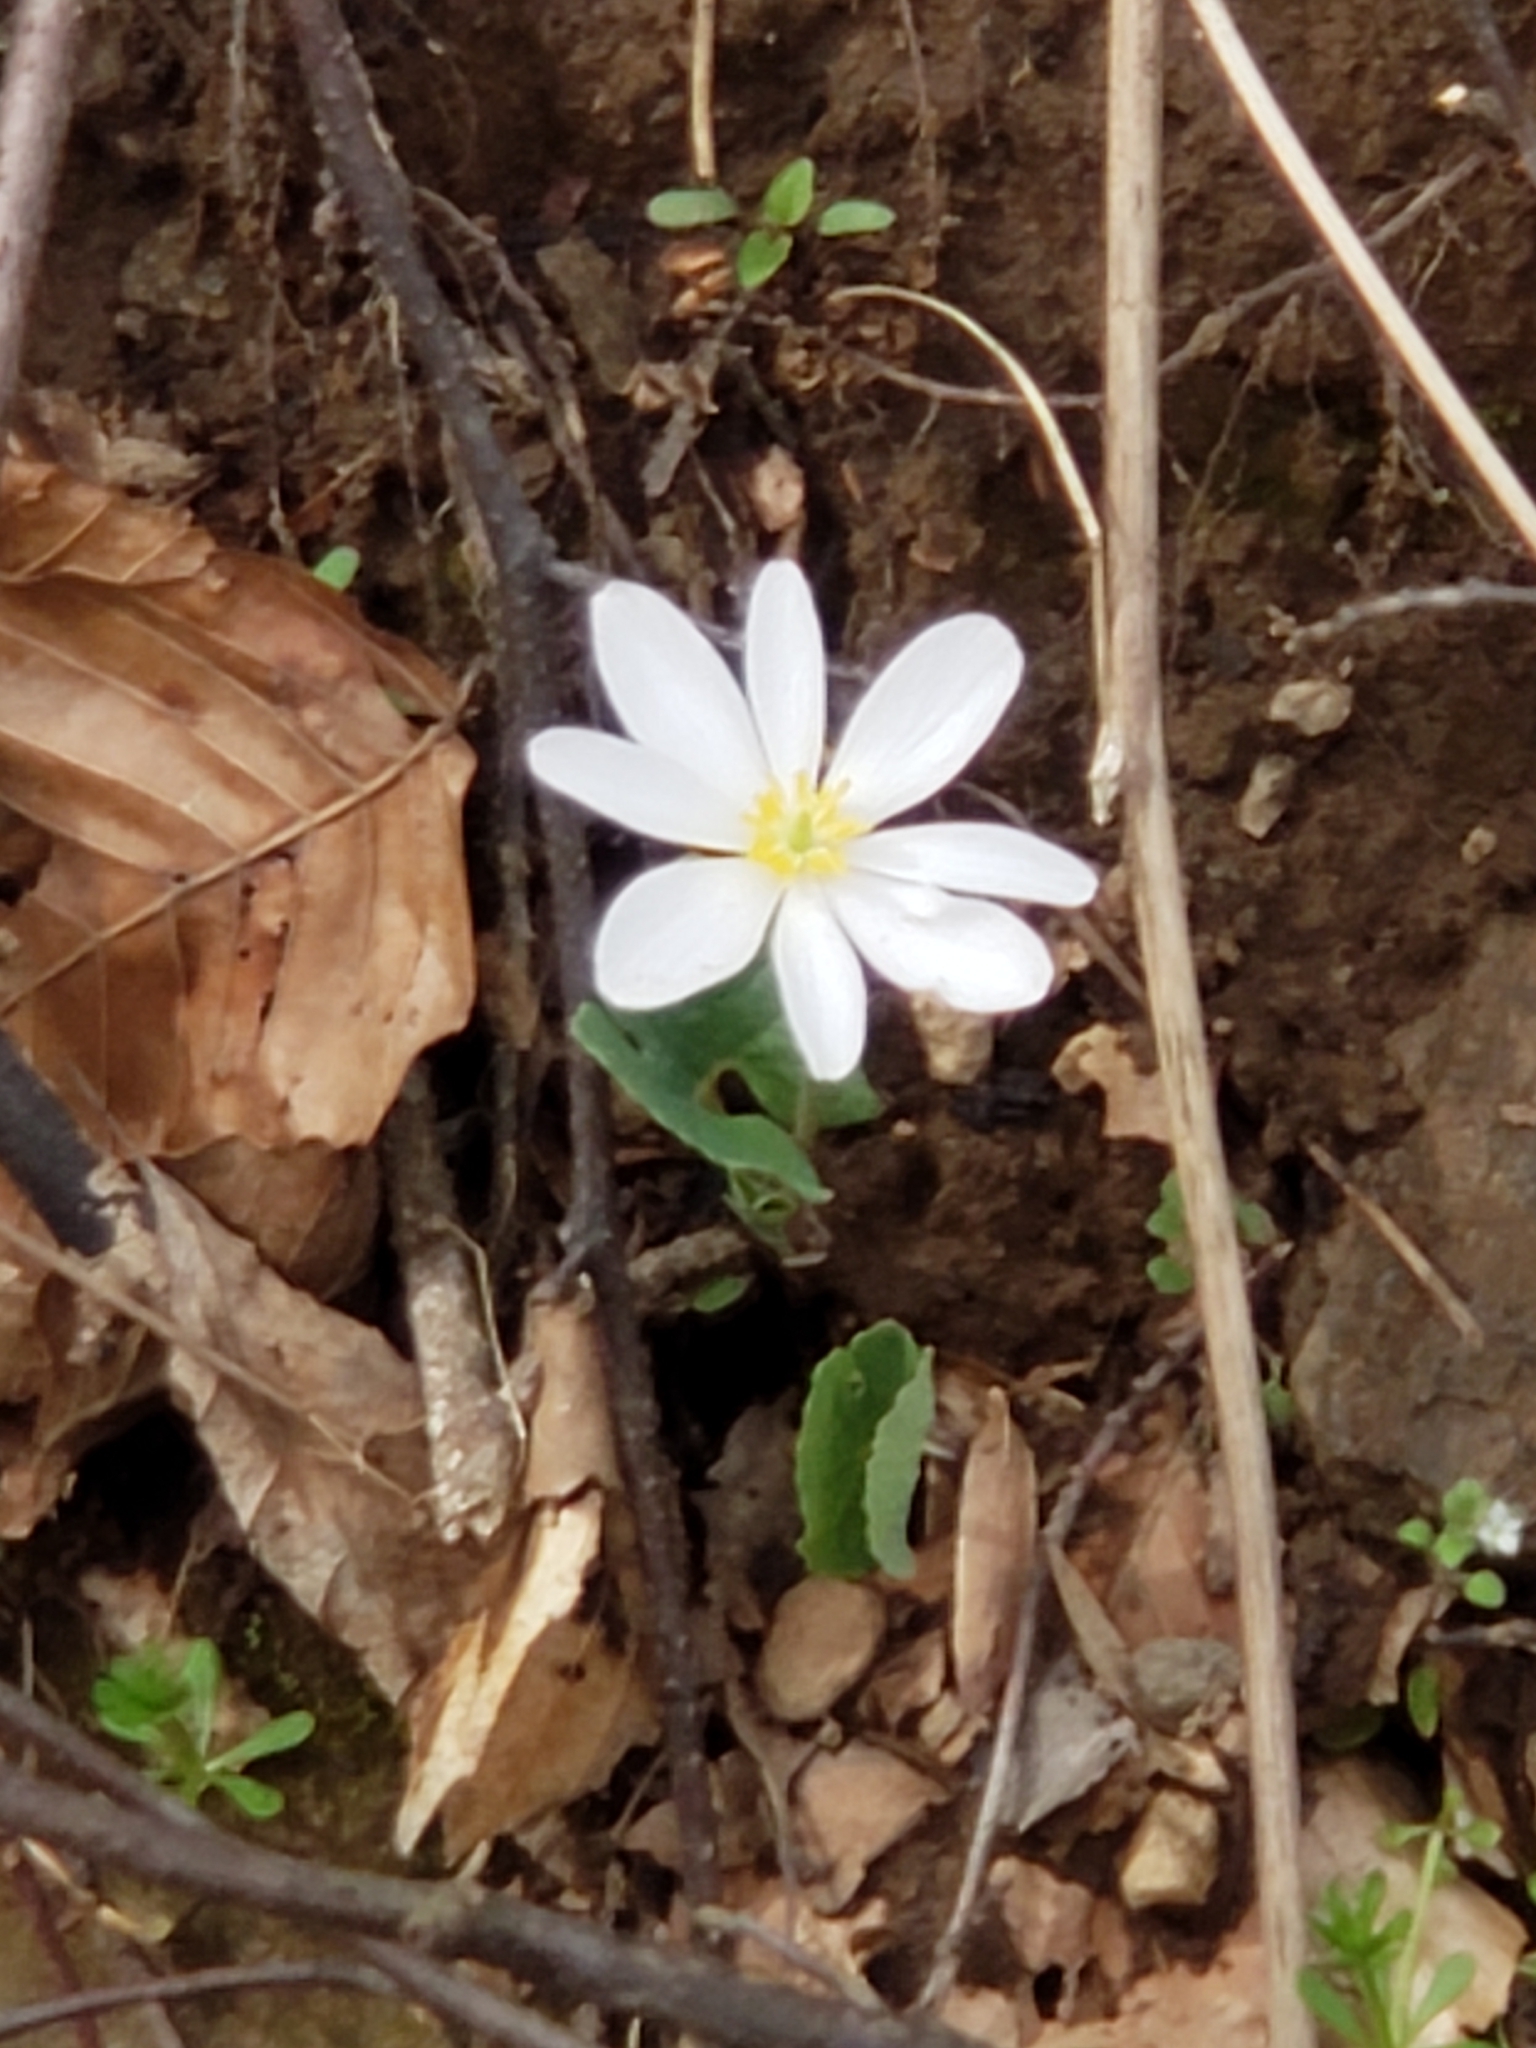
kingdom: Plantae
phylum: Tracheophyta
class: Magnoliopsida
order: Ranunculales
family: Papaveraceae
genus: Sanguinaria
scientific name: Sanguinaria canadensis
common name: Bloodroot
